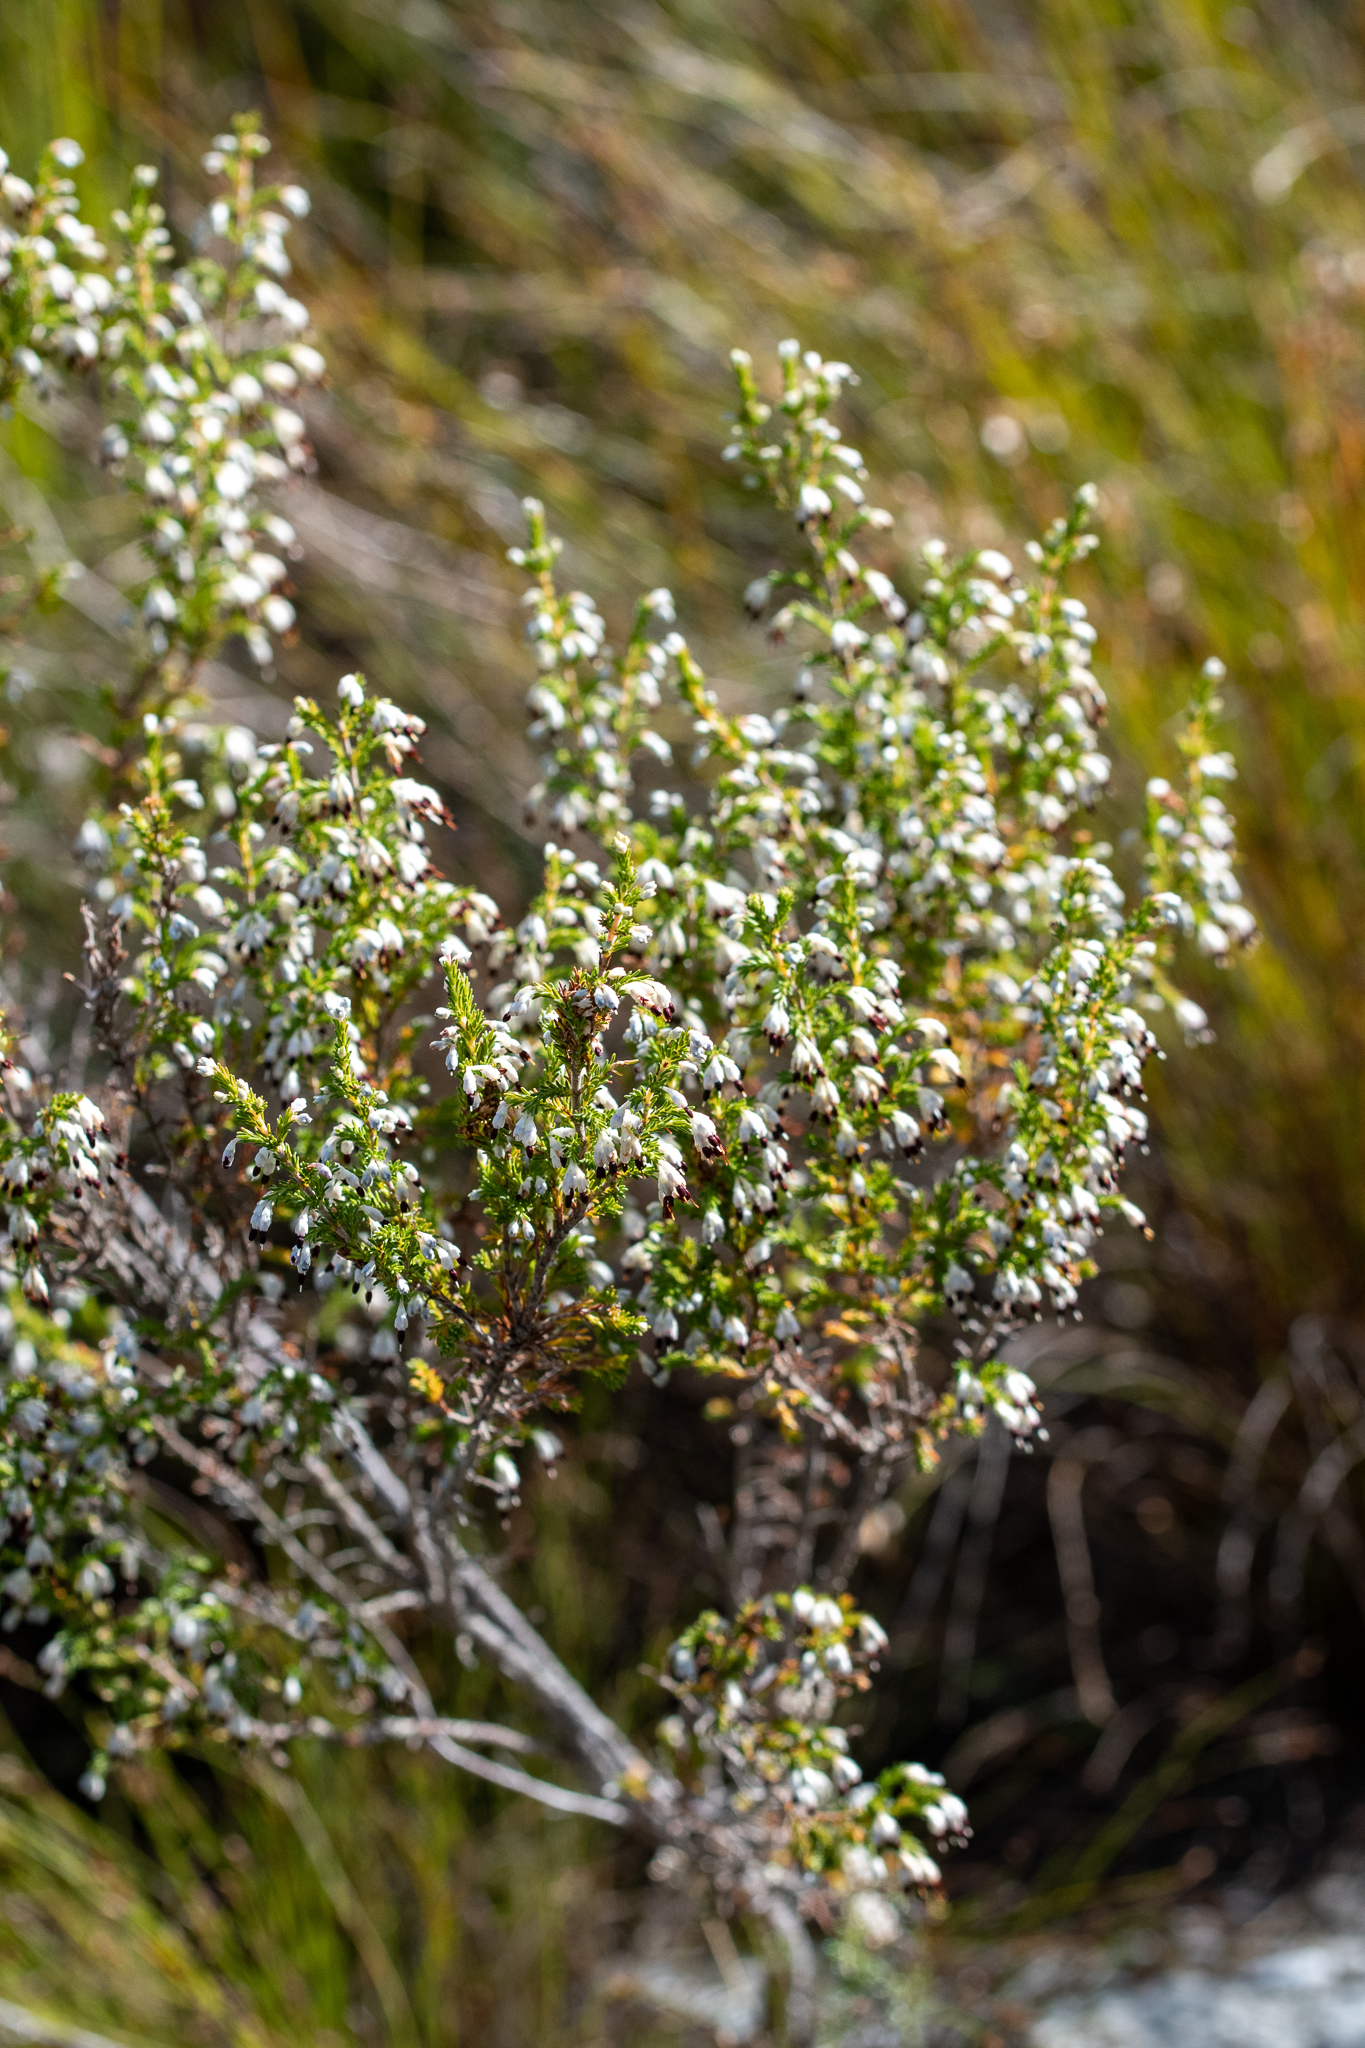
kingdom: Plantae
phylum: Tracheophyta
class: Magnoliopsida
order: Ericales
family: Ericaceae
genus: Erica
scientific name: Erica imbricata
